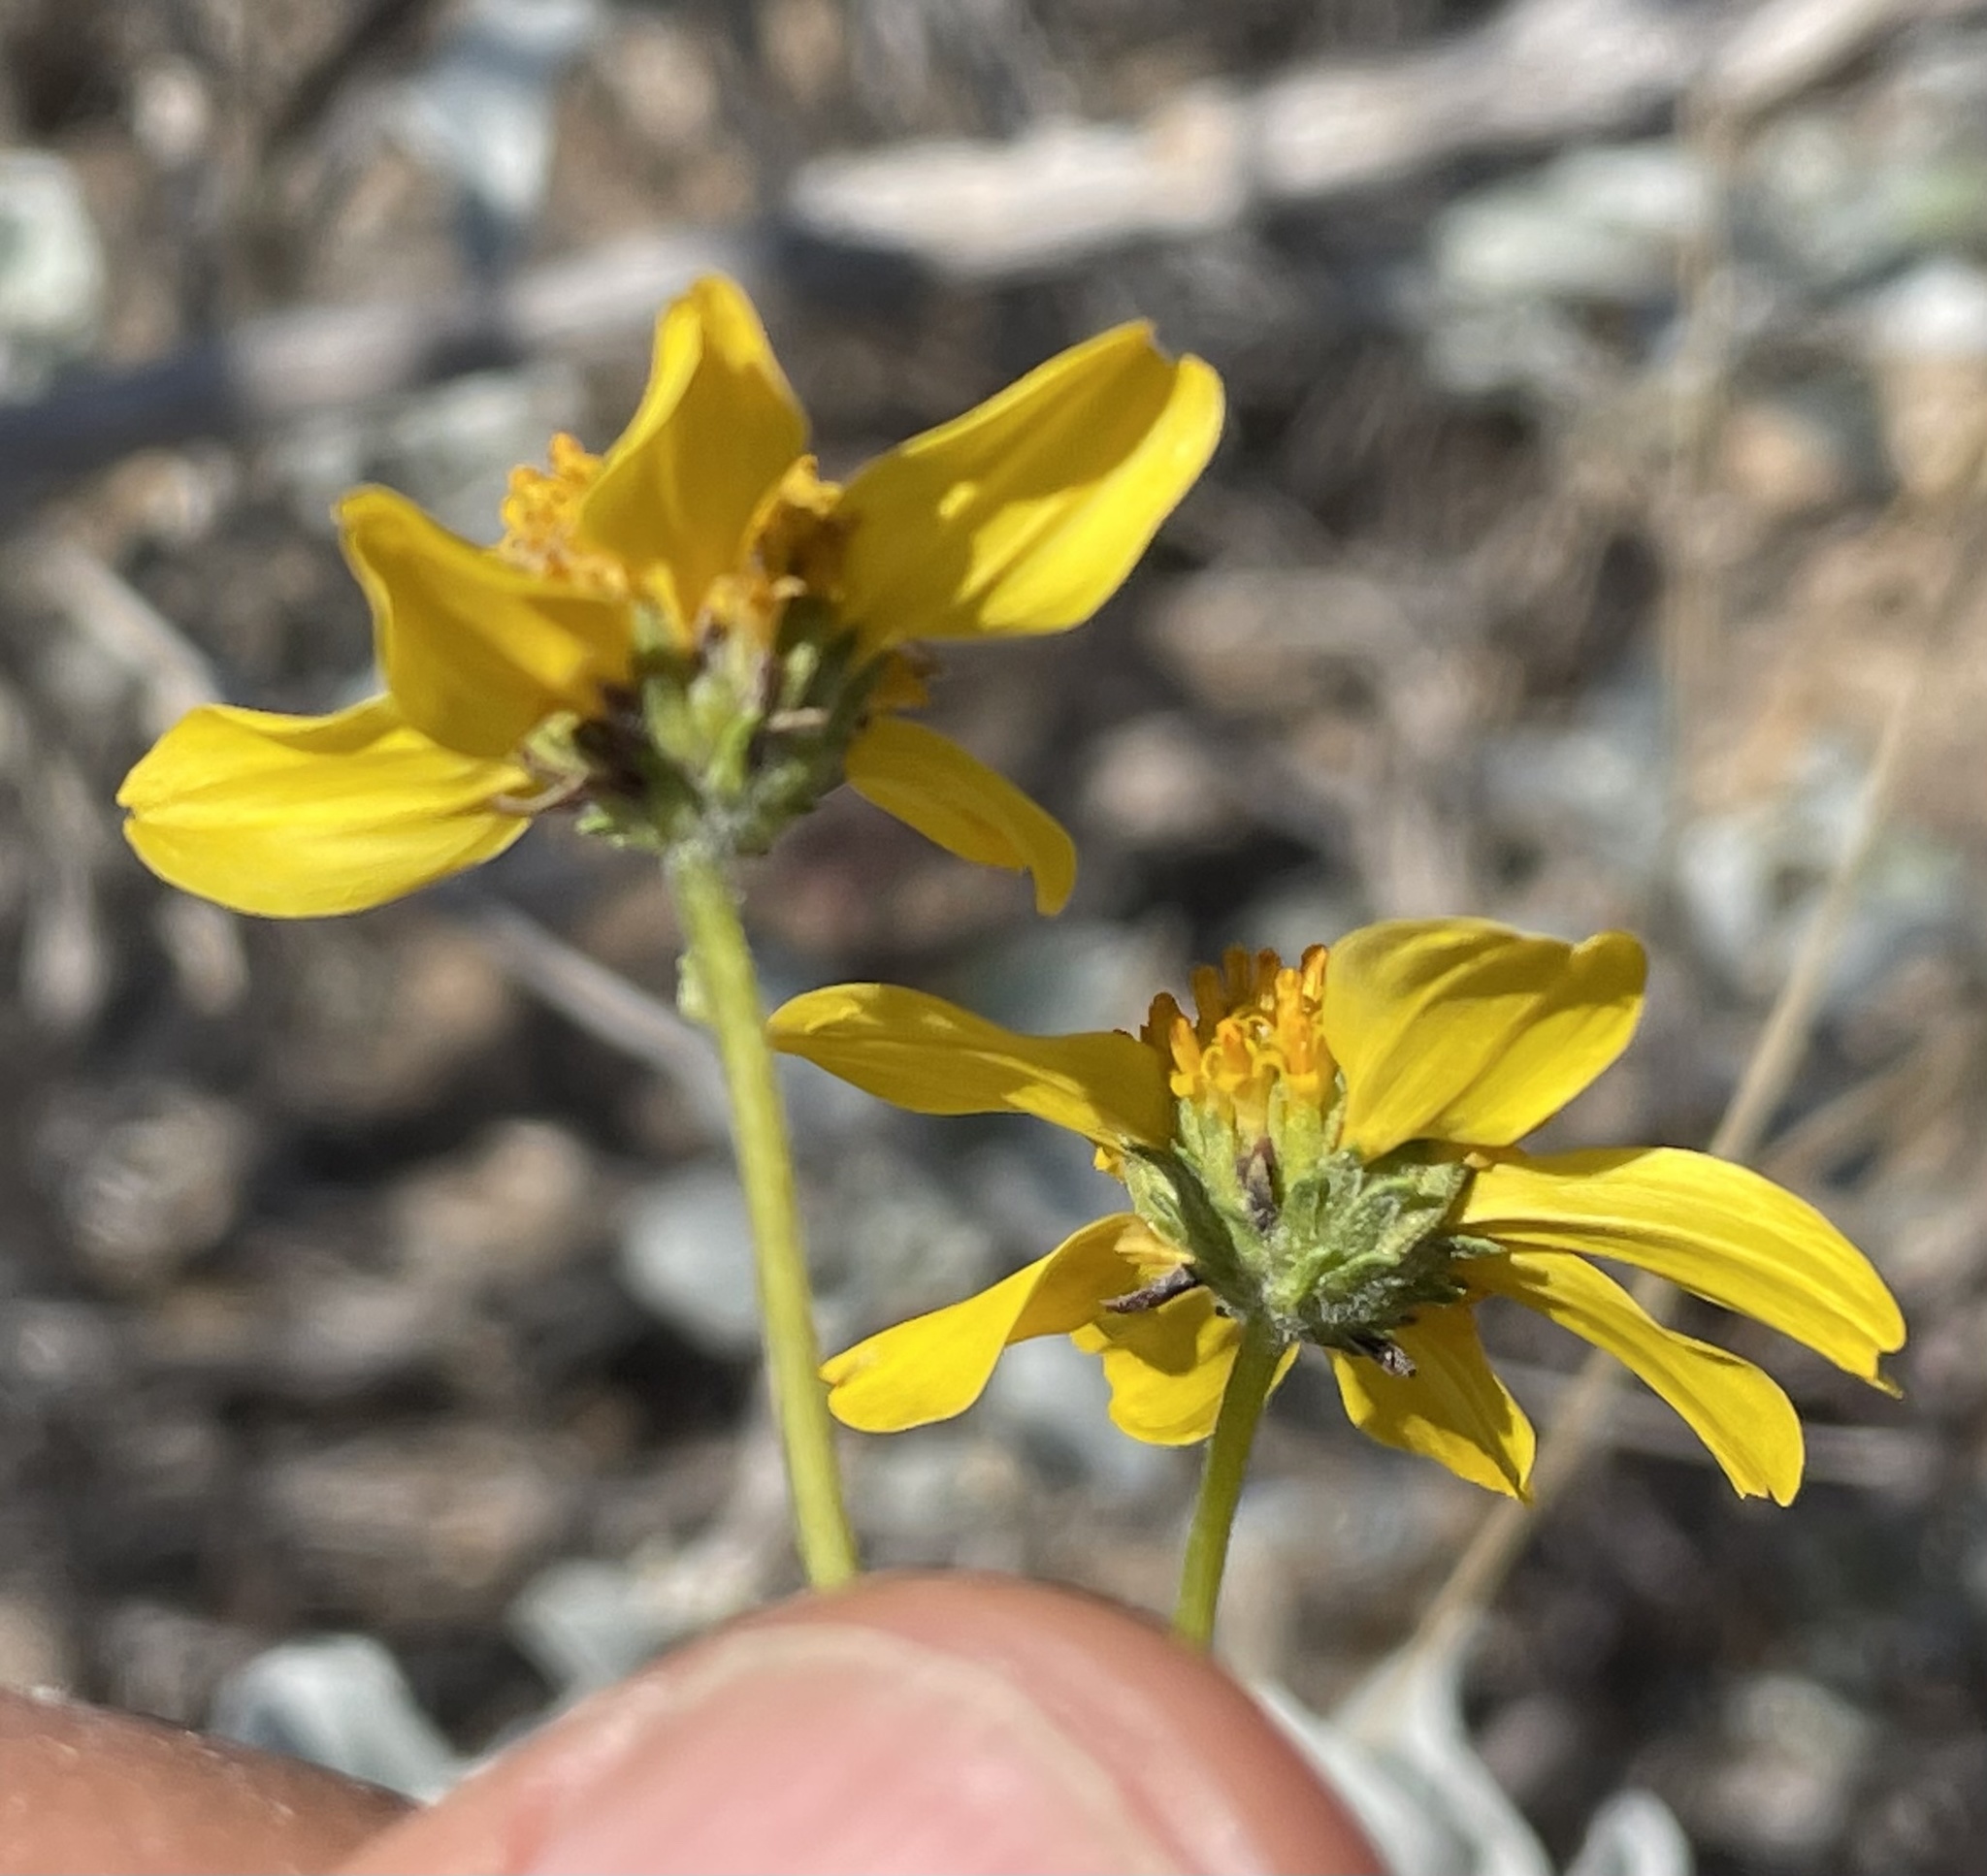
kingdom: Plantae
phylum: Tracheophyta
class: Magnoliopsida
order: Asterales
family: Asteraceae
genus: Encelia
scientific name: Encelia farinosa
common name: Brittlebush
